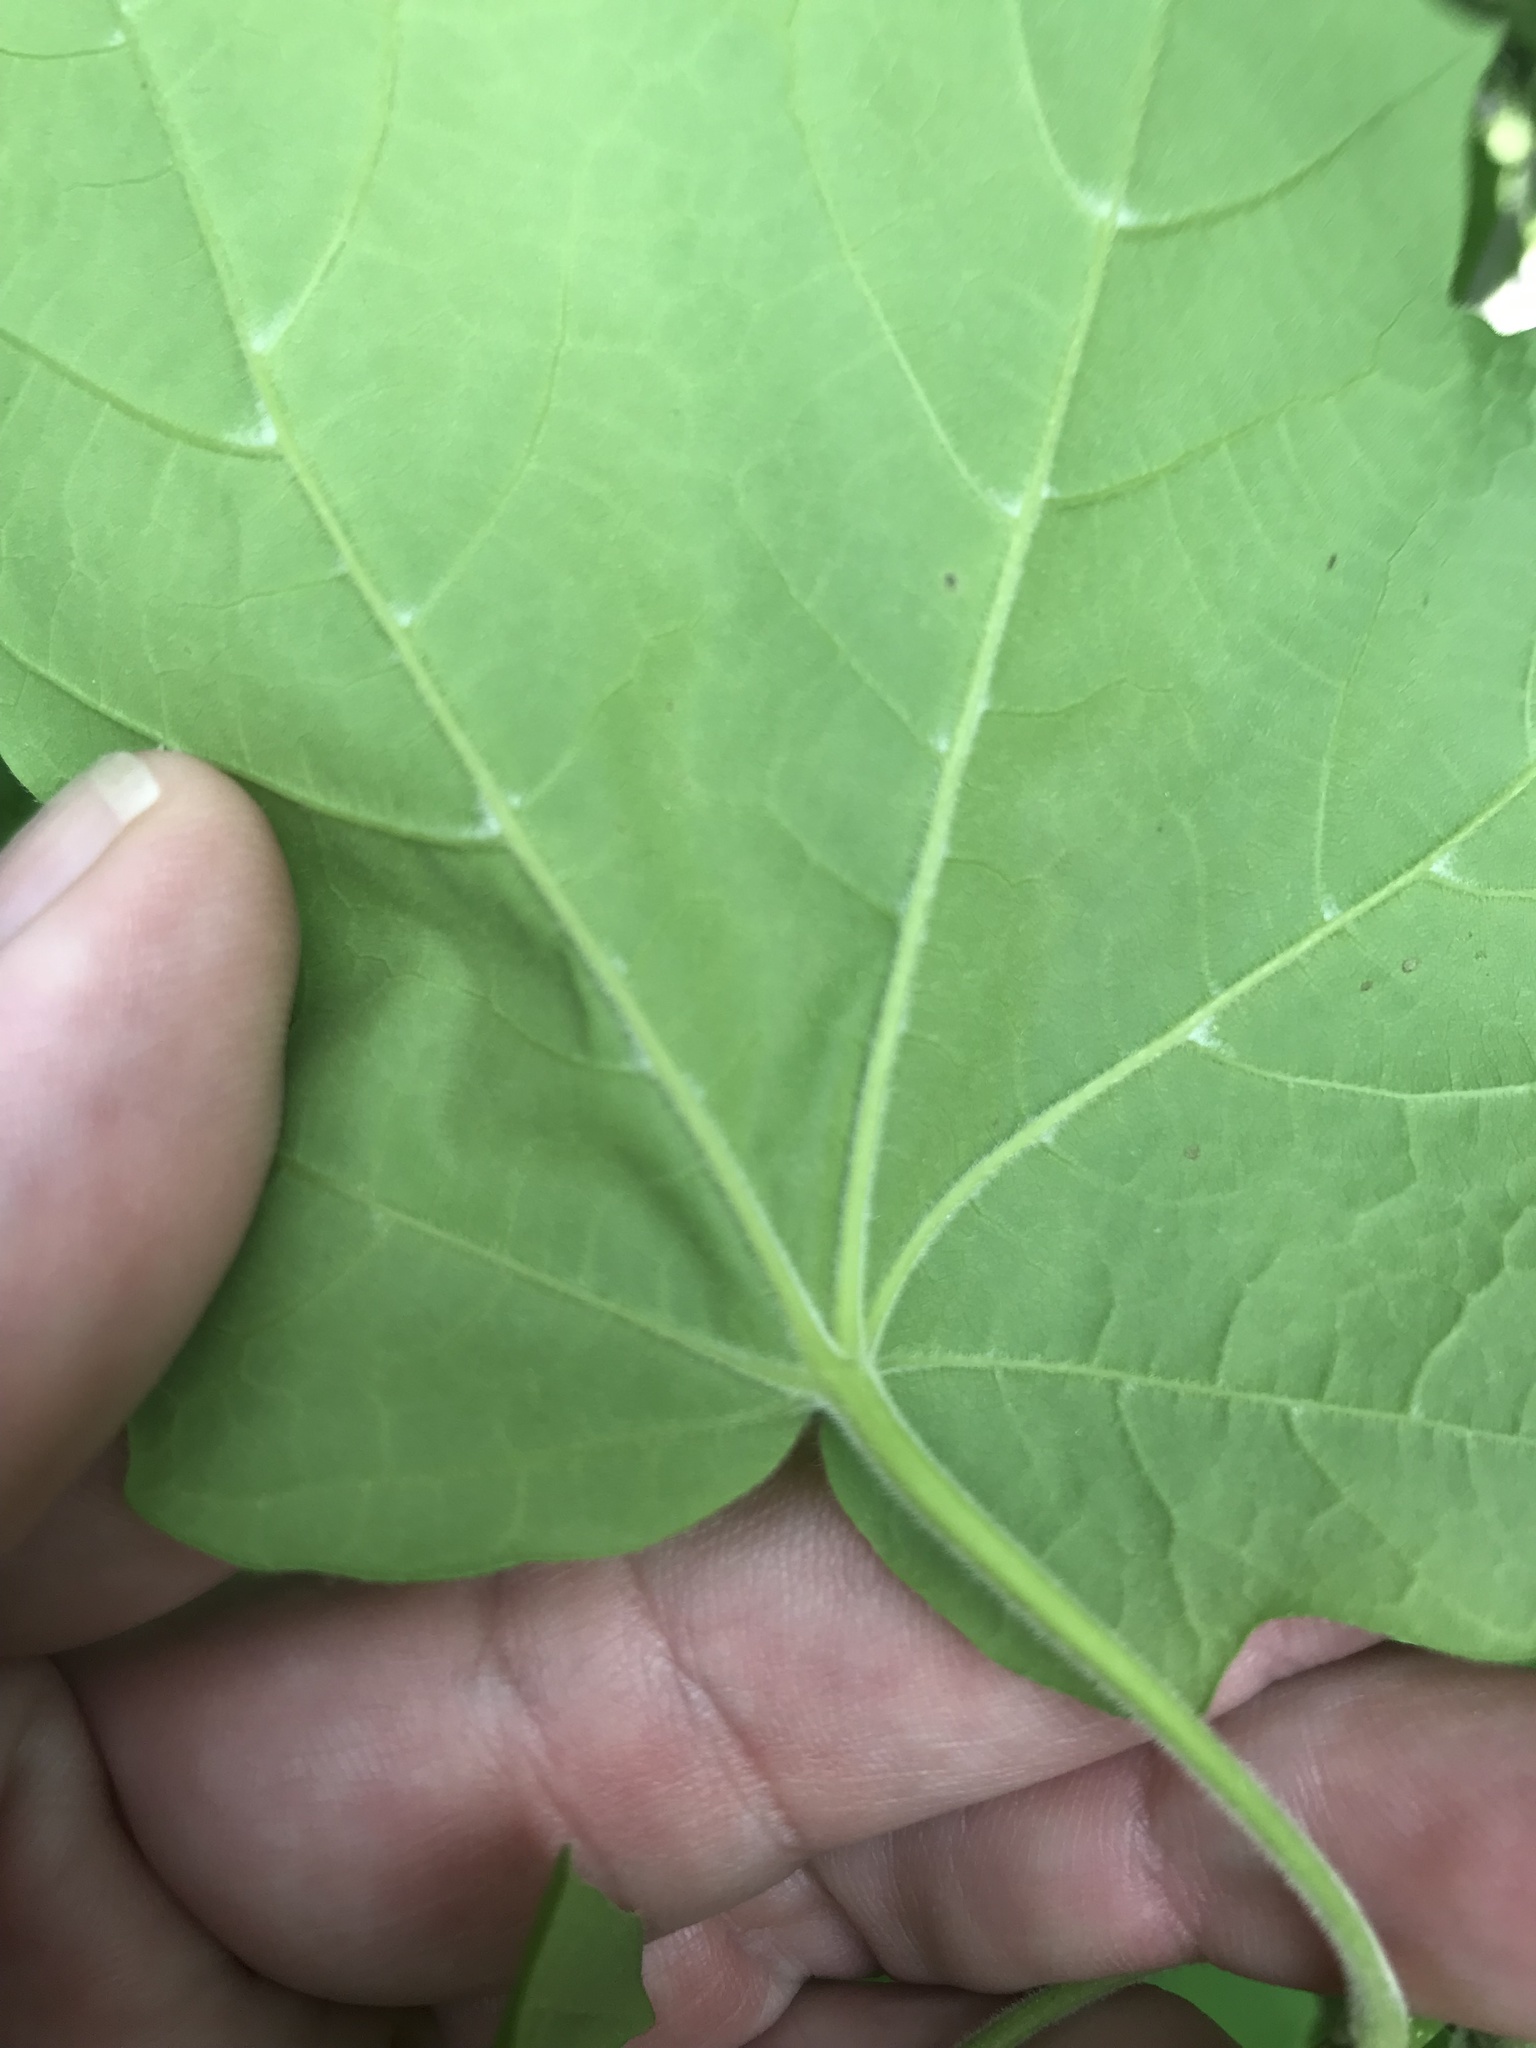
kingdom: Plantae
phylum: Tracheophyta
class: Magnoliopsida
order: Sapindales
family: Sapindaceae
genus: Acer
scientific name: Acer nigrum
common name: Black maple
